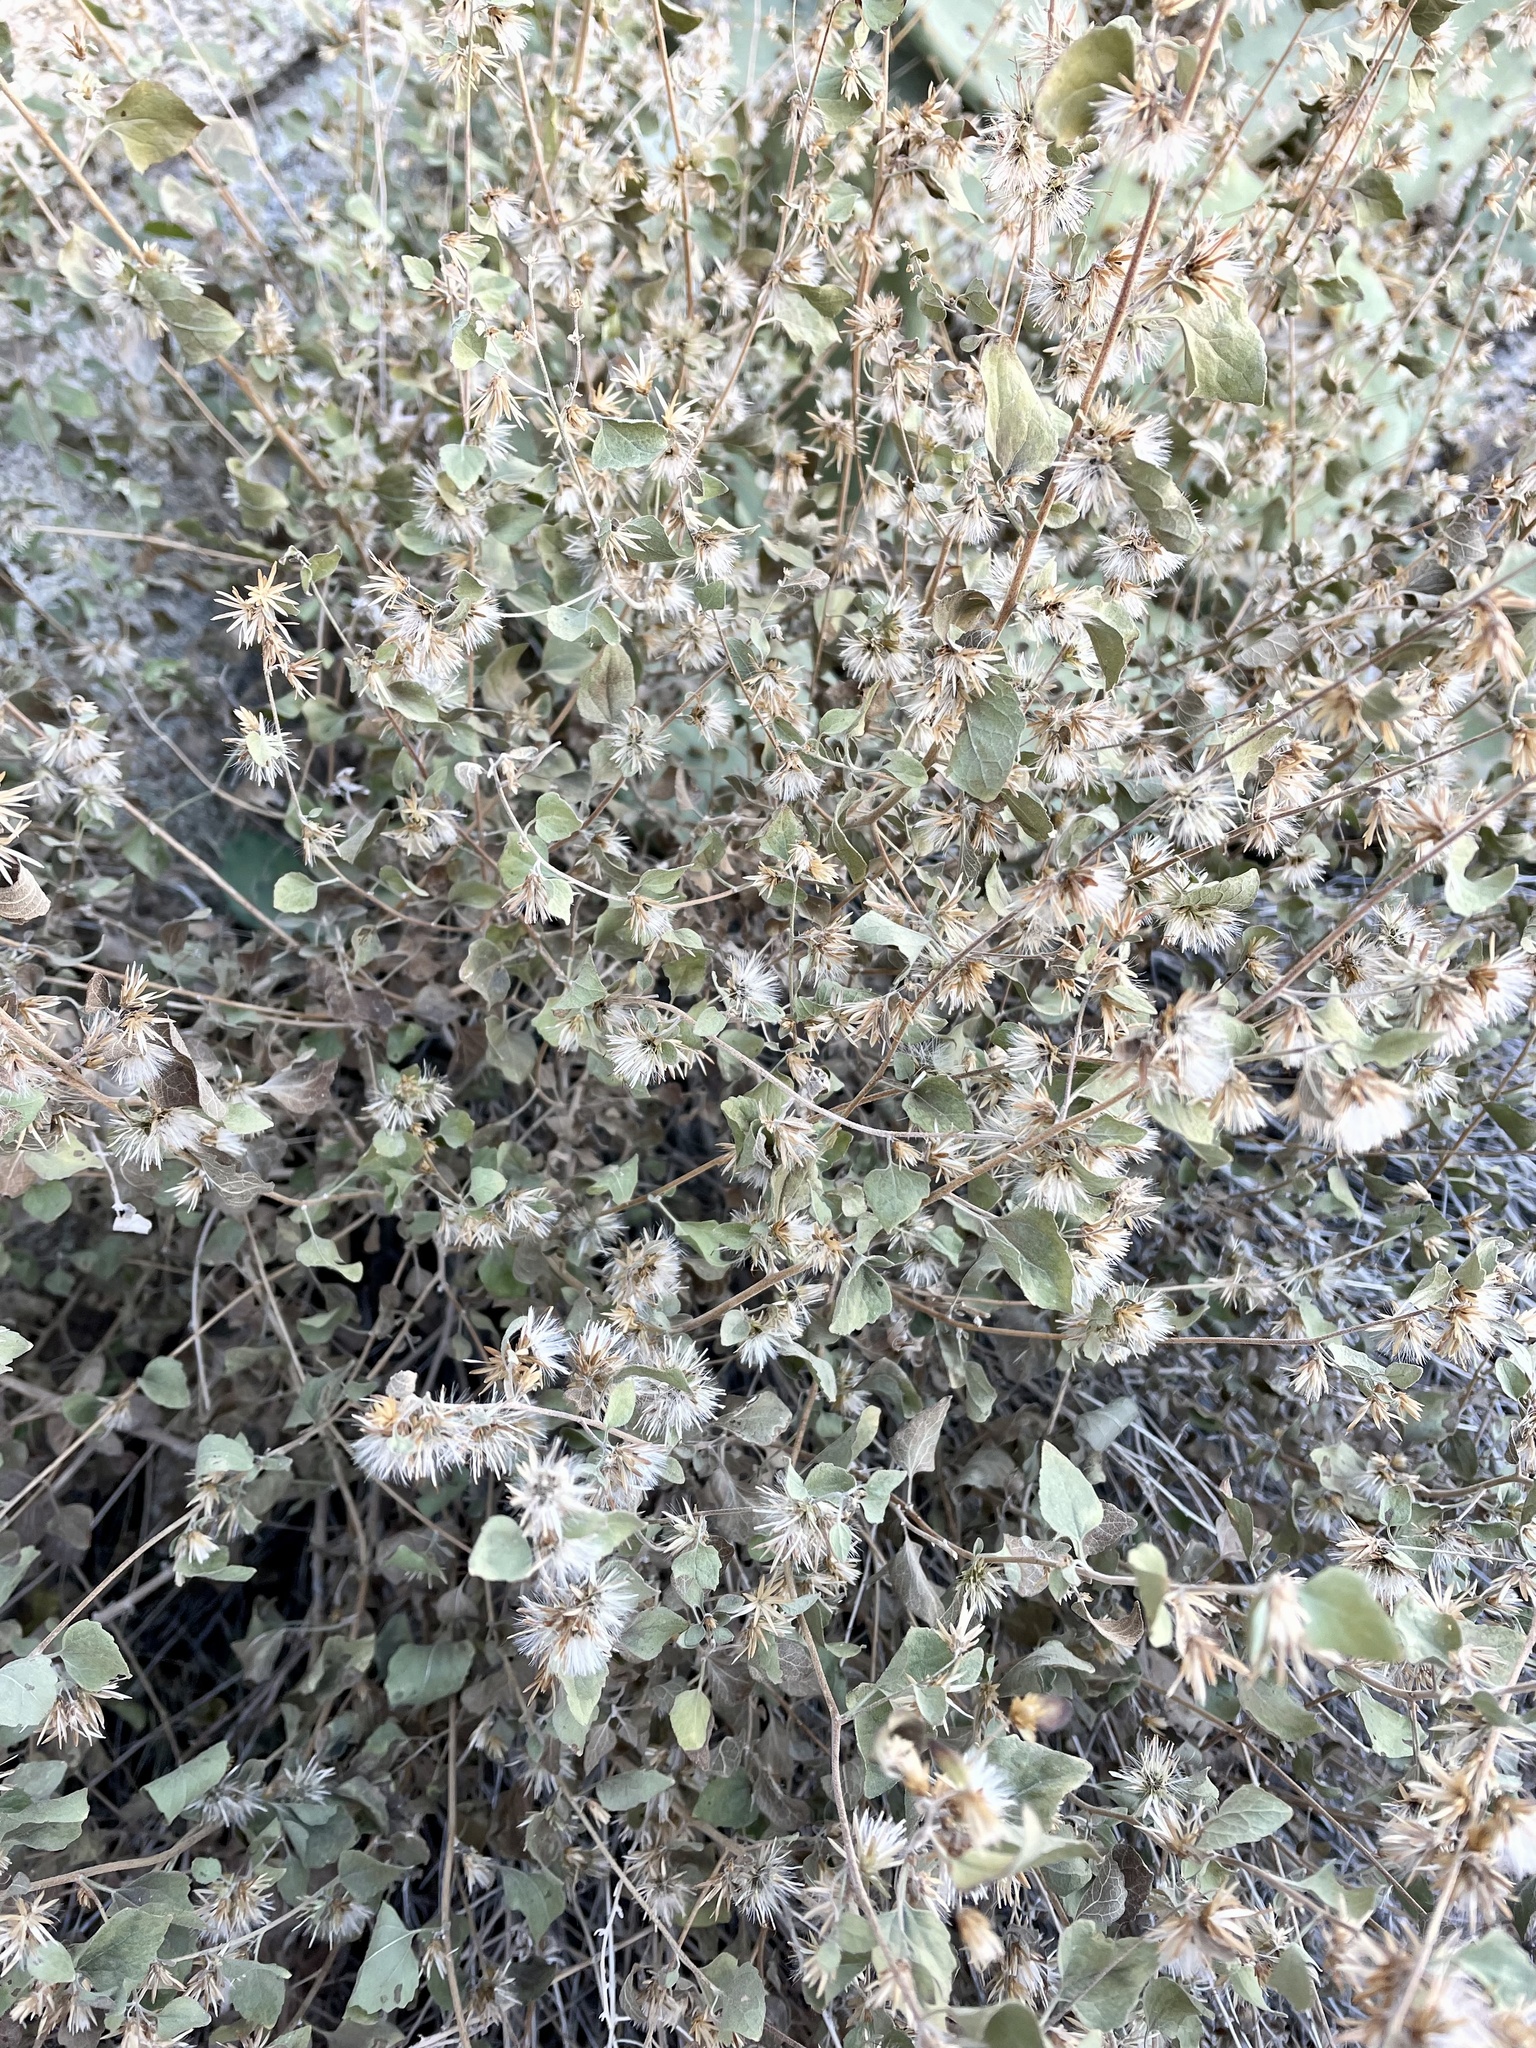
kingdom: Plantae
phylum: Tracheophyta
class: Magnoliopsida
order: Asterales
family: Asteraceae
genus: Brickellia
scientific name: Brickellia californica
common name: California brickellbush
